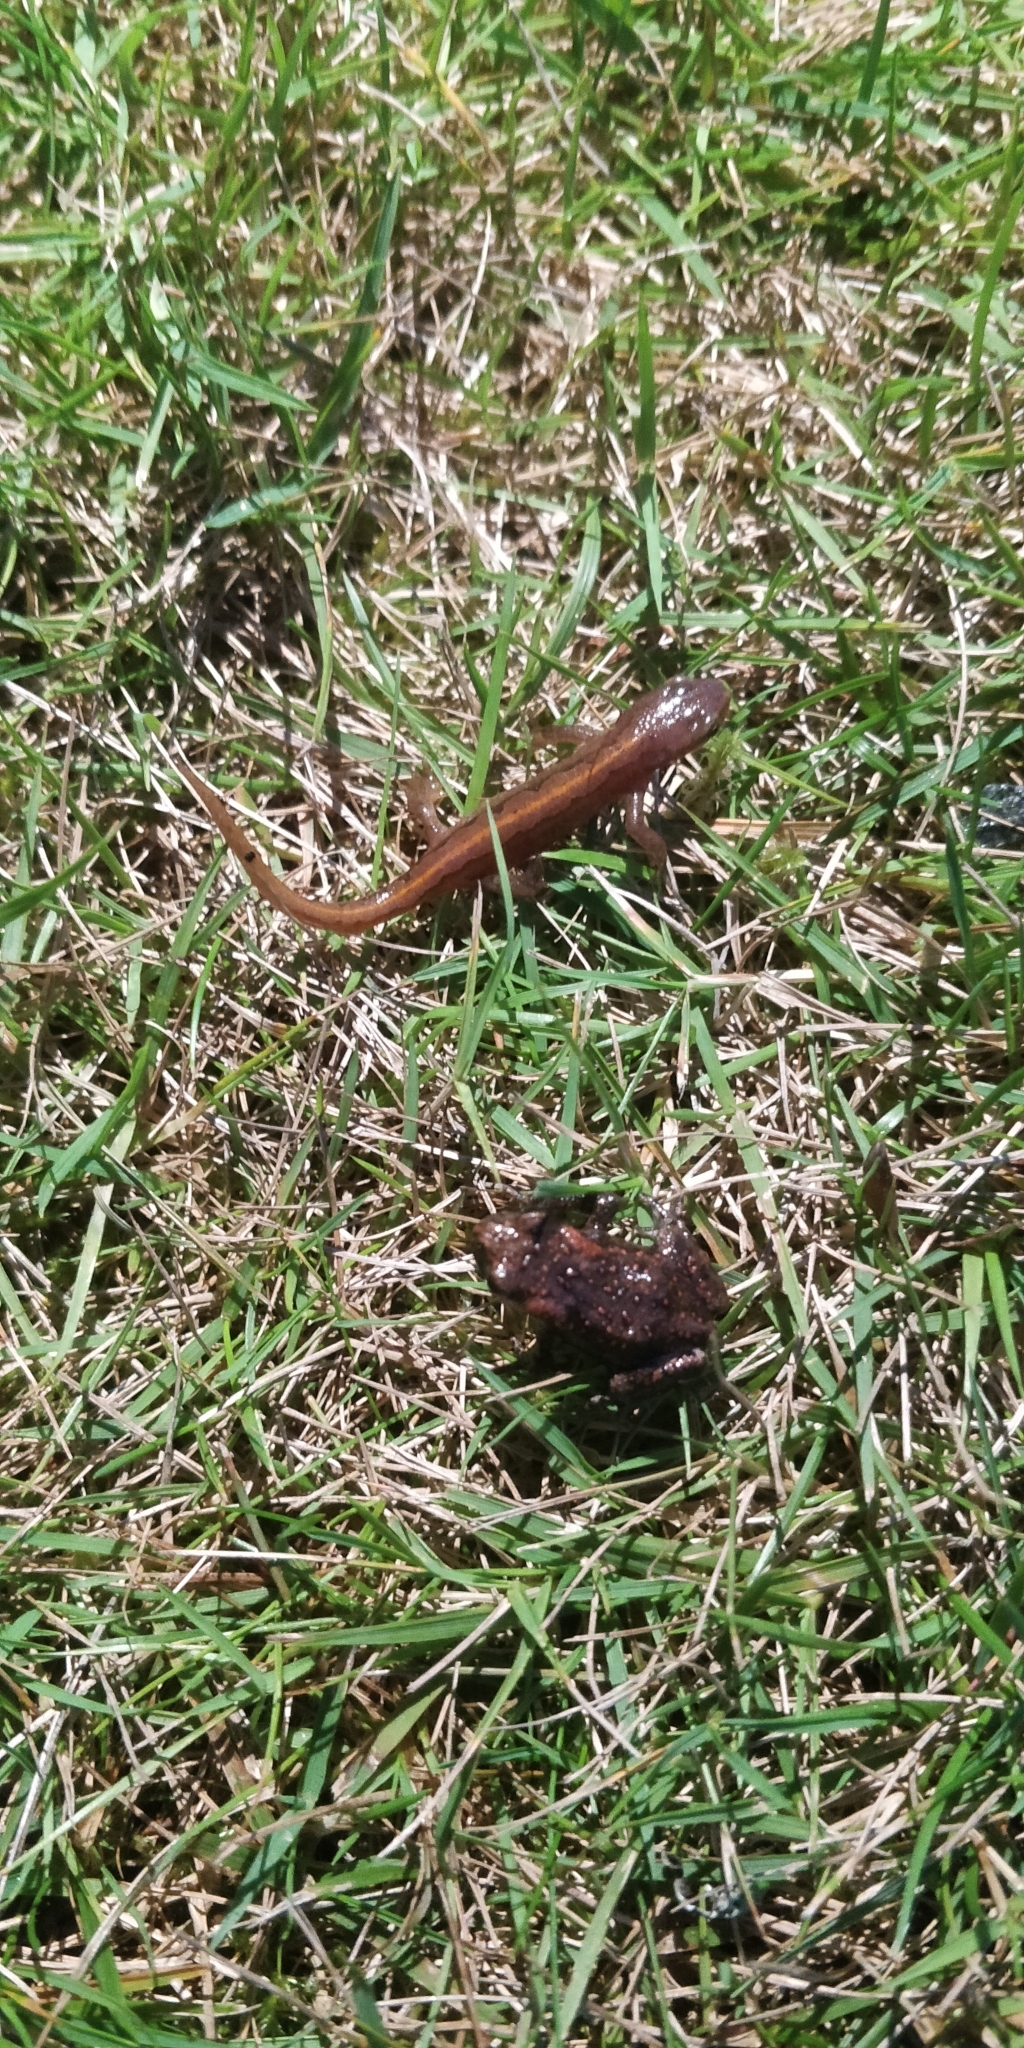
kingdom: Animalia
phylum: Chordata
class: Amphibia
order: Anura
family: Bufonidae
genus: Bufo
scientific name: Bufo bufo
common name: Common toad
